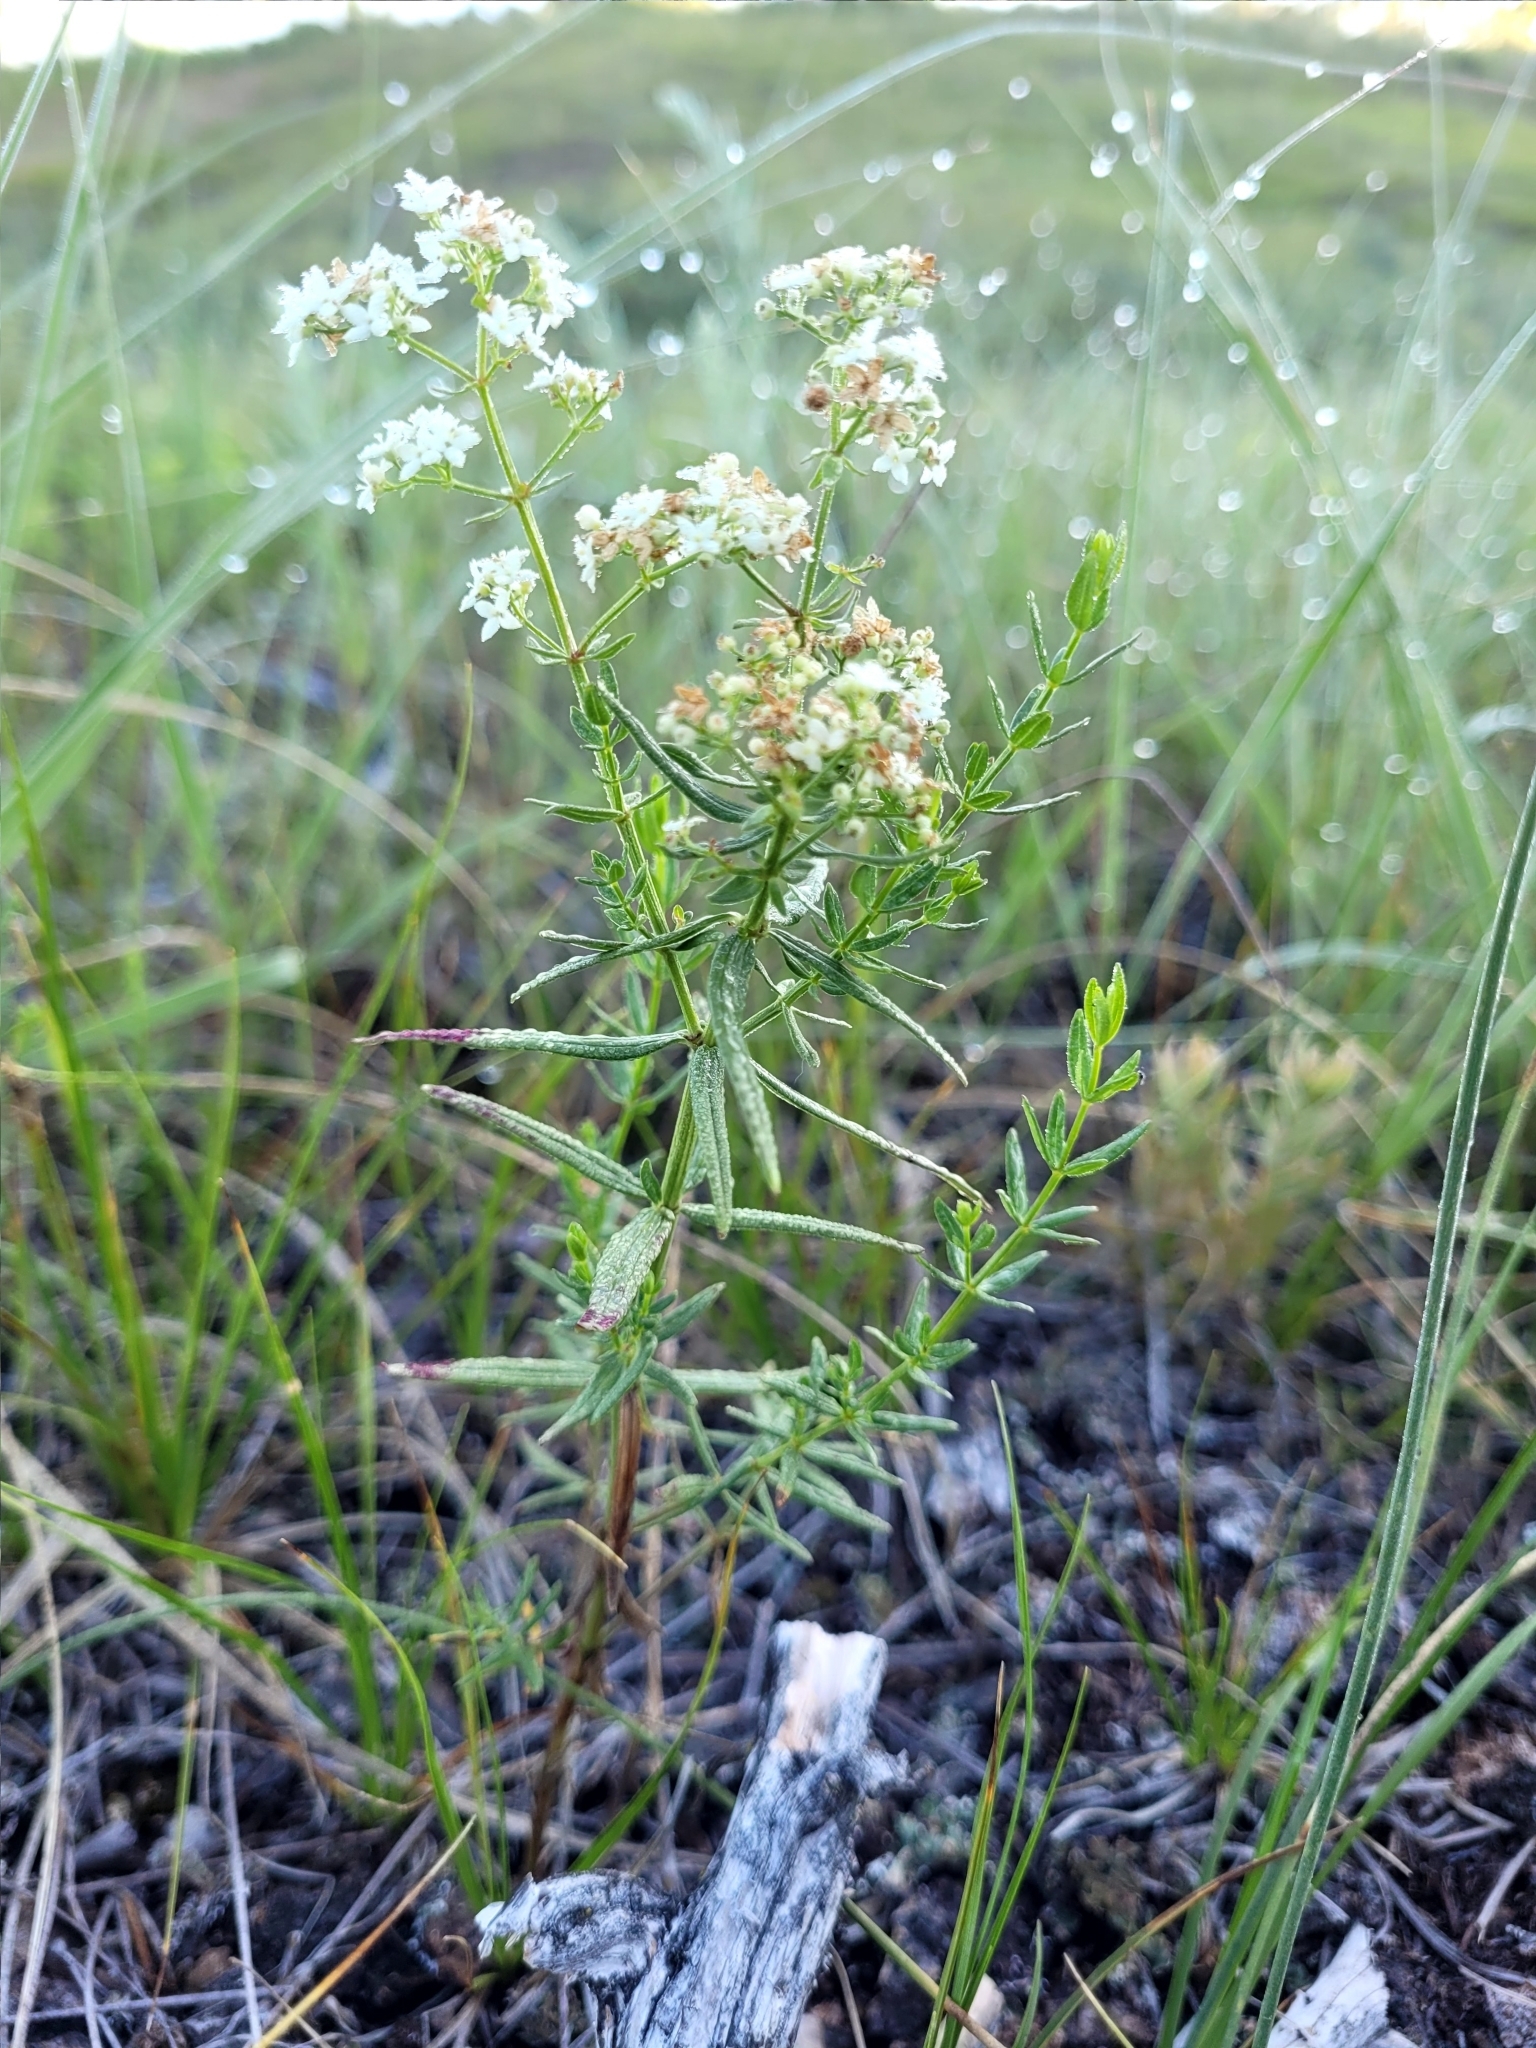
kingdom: Plantae
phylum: Tracheophyta
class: Magnoliopsida
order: Gentianales
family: Rubiaceae
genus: Galium
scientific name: Galium boreale
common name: Northern bedstraw
